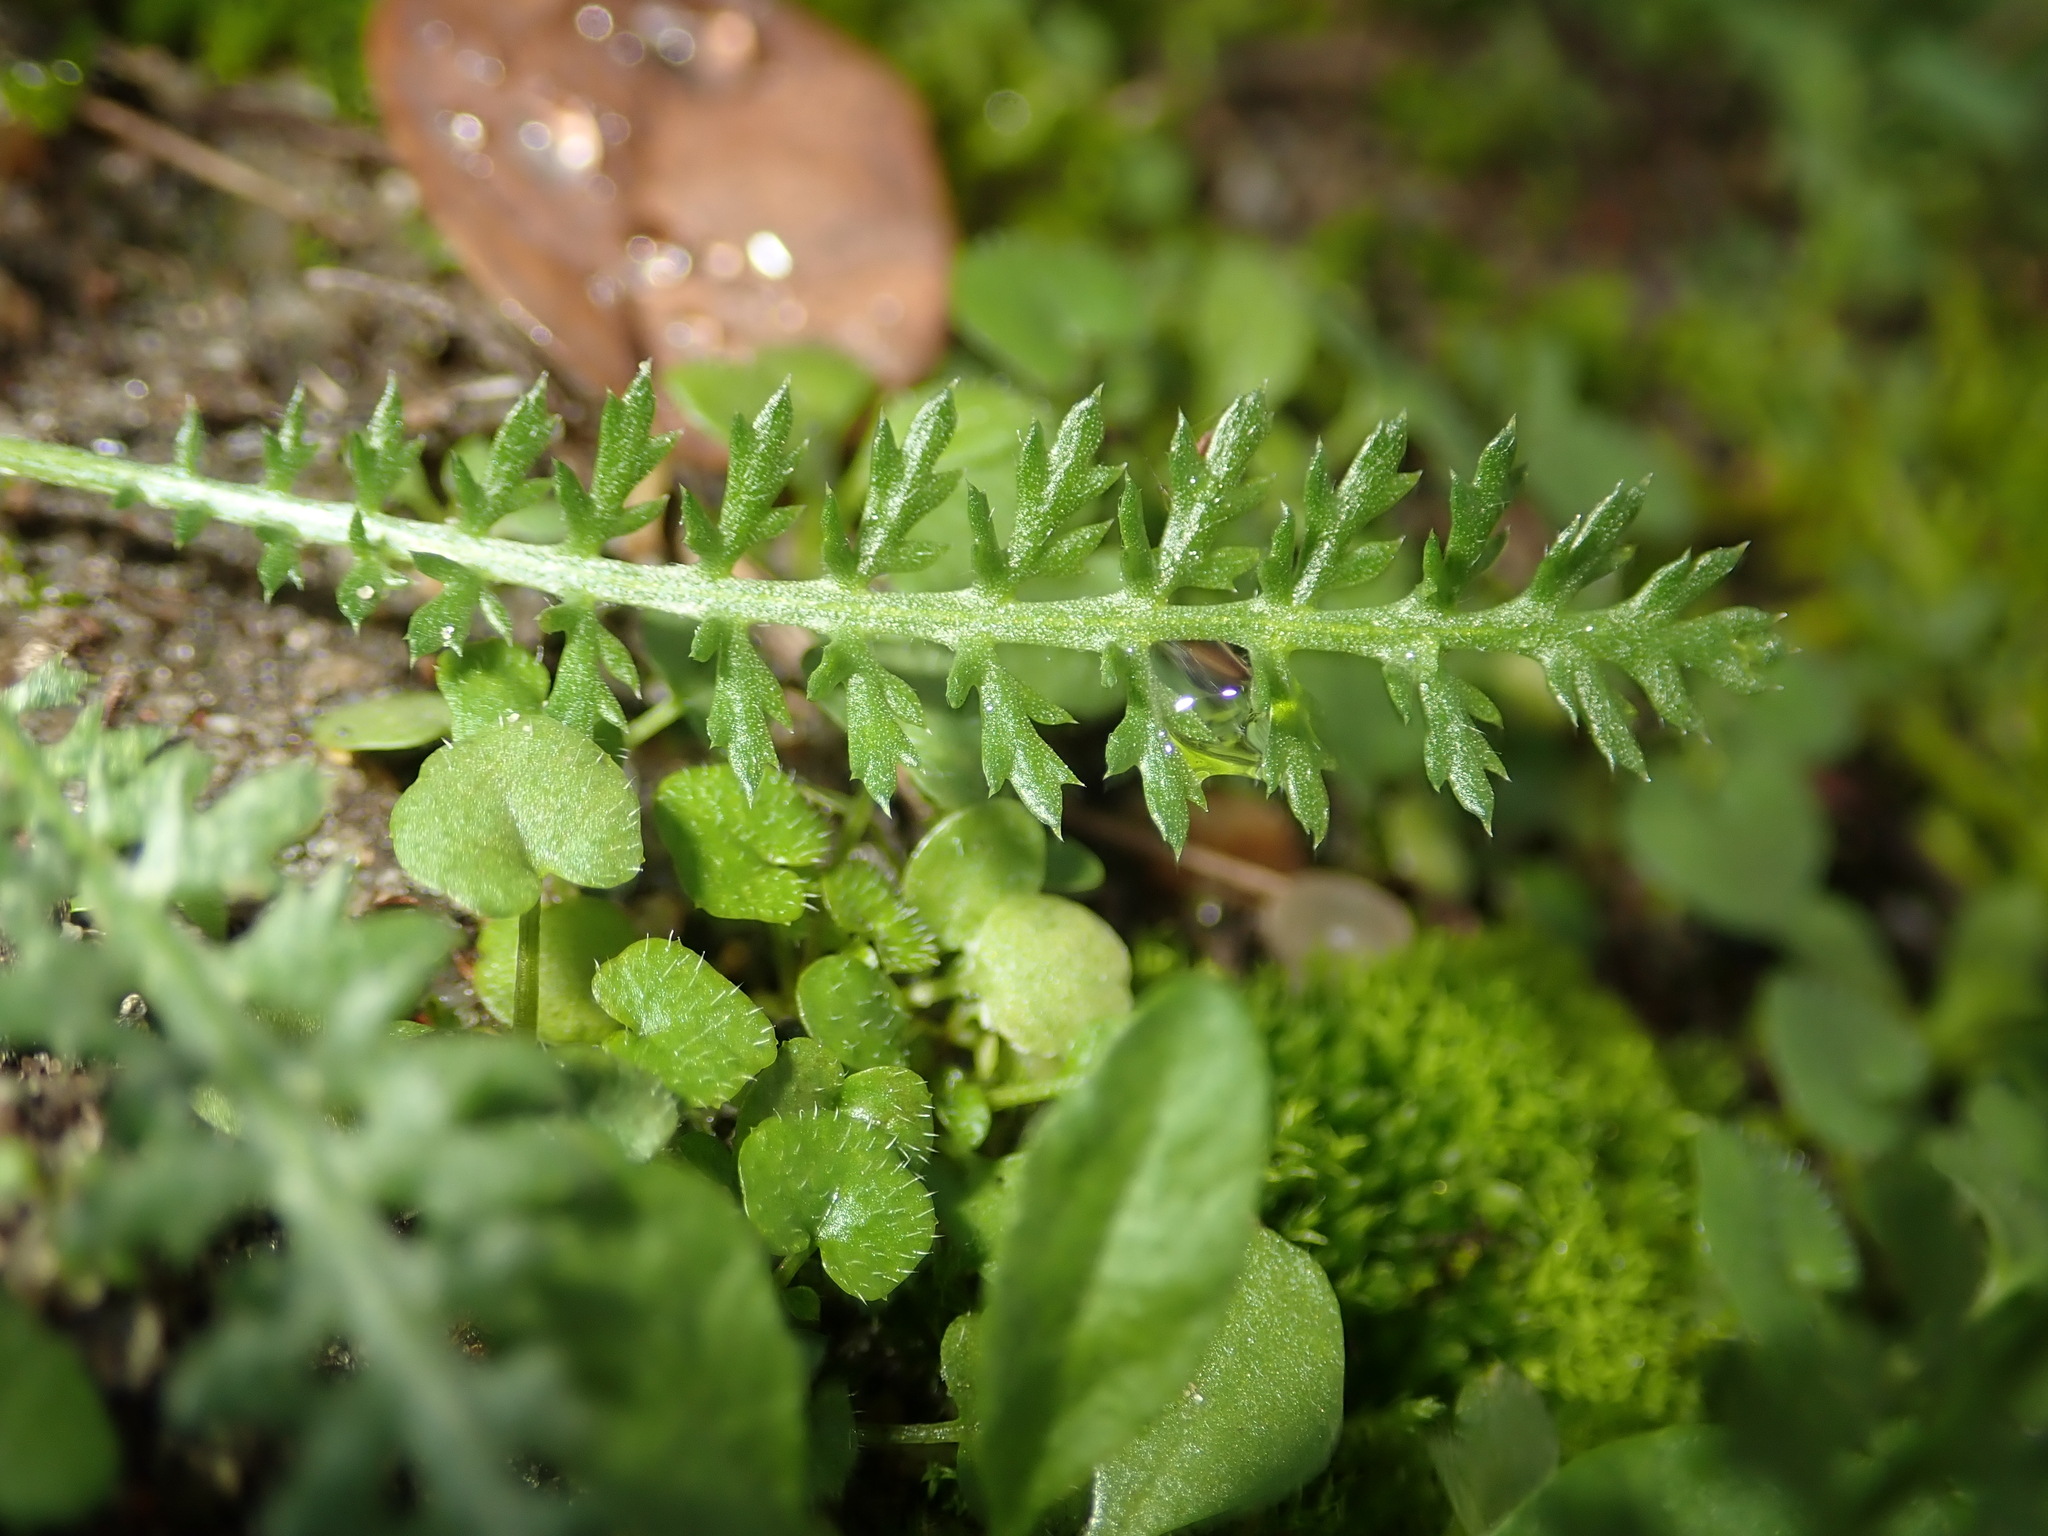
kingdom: Plantae
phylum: Tracheophyta
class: Magnoliopsida
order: Asterales
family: Asteraceae
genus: Achillea
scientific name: Achillea millefolium
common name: Yarrow
